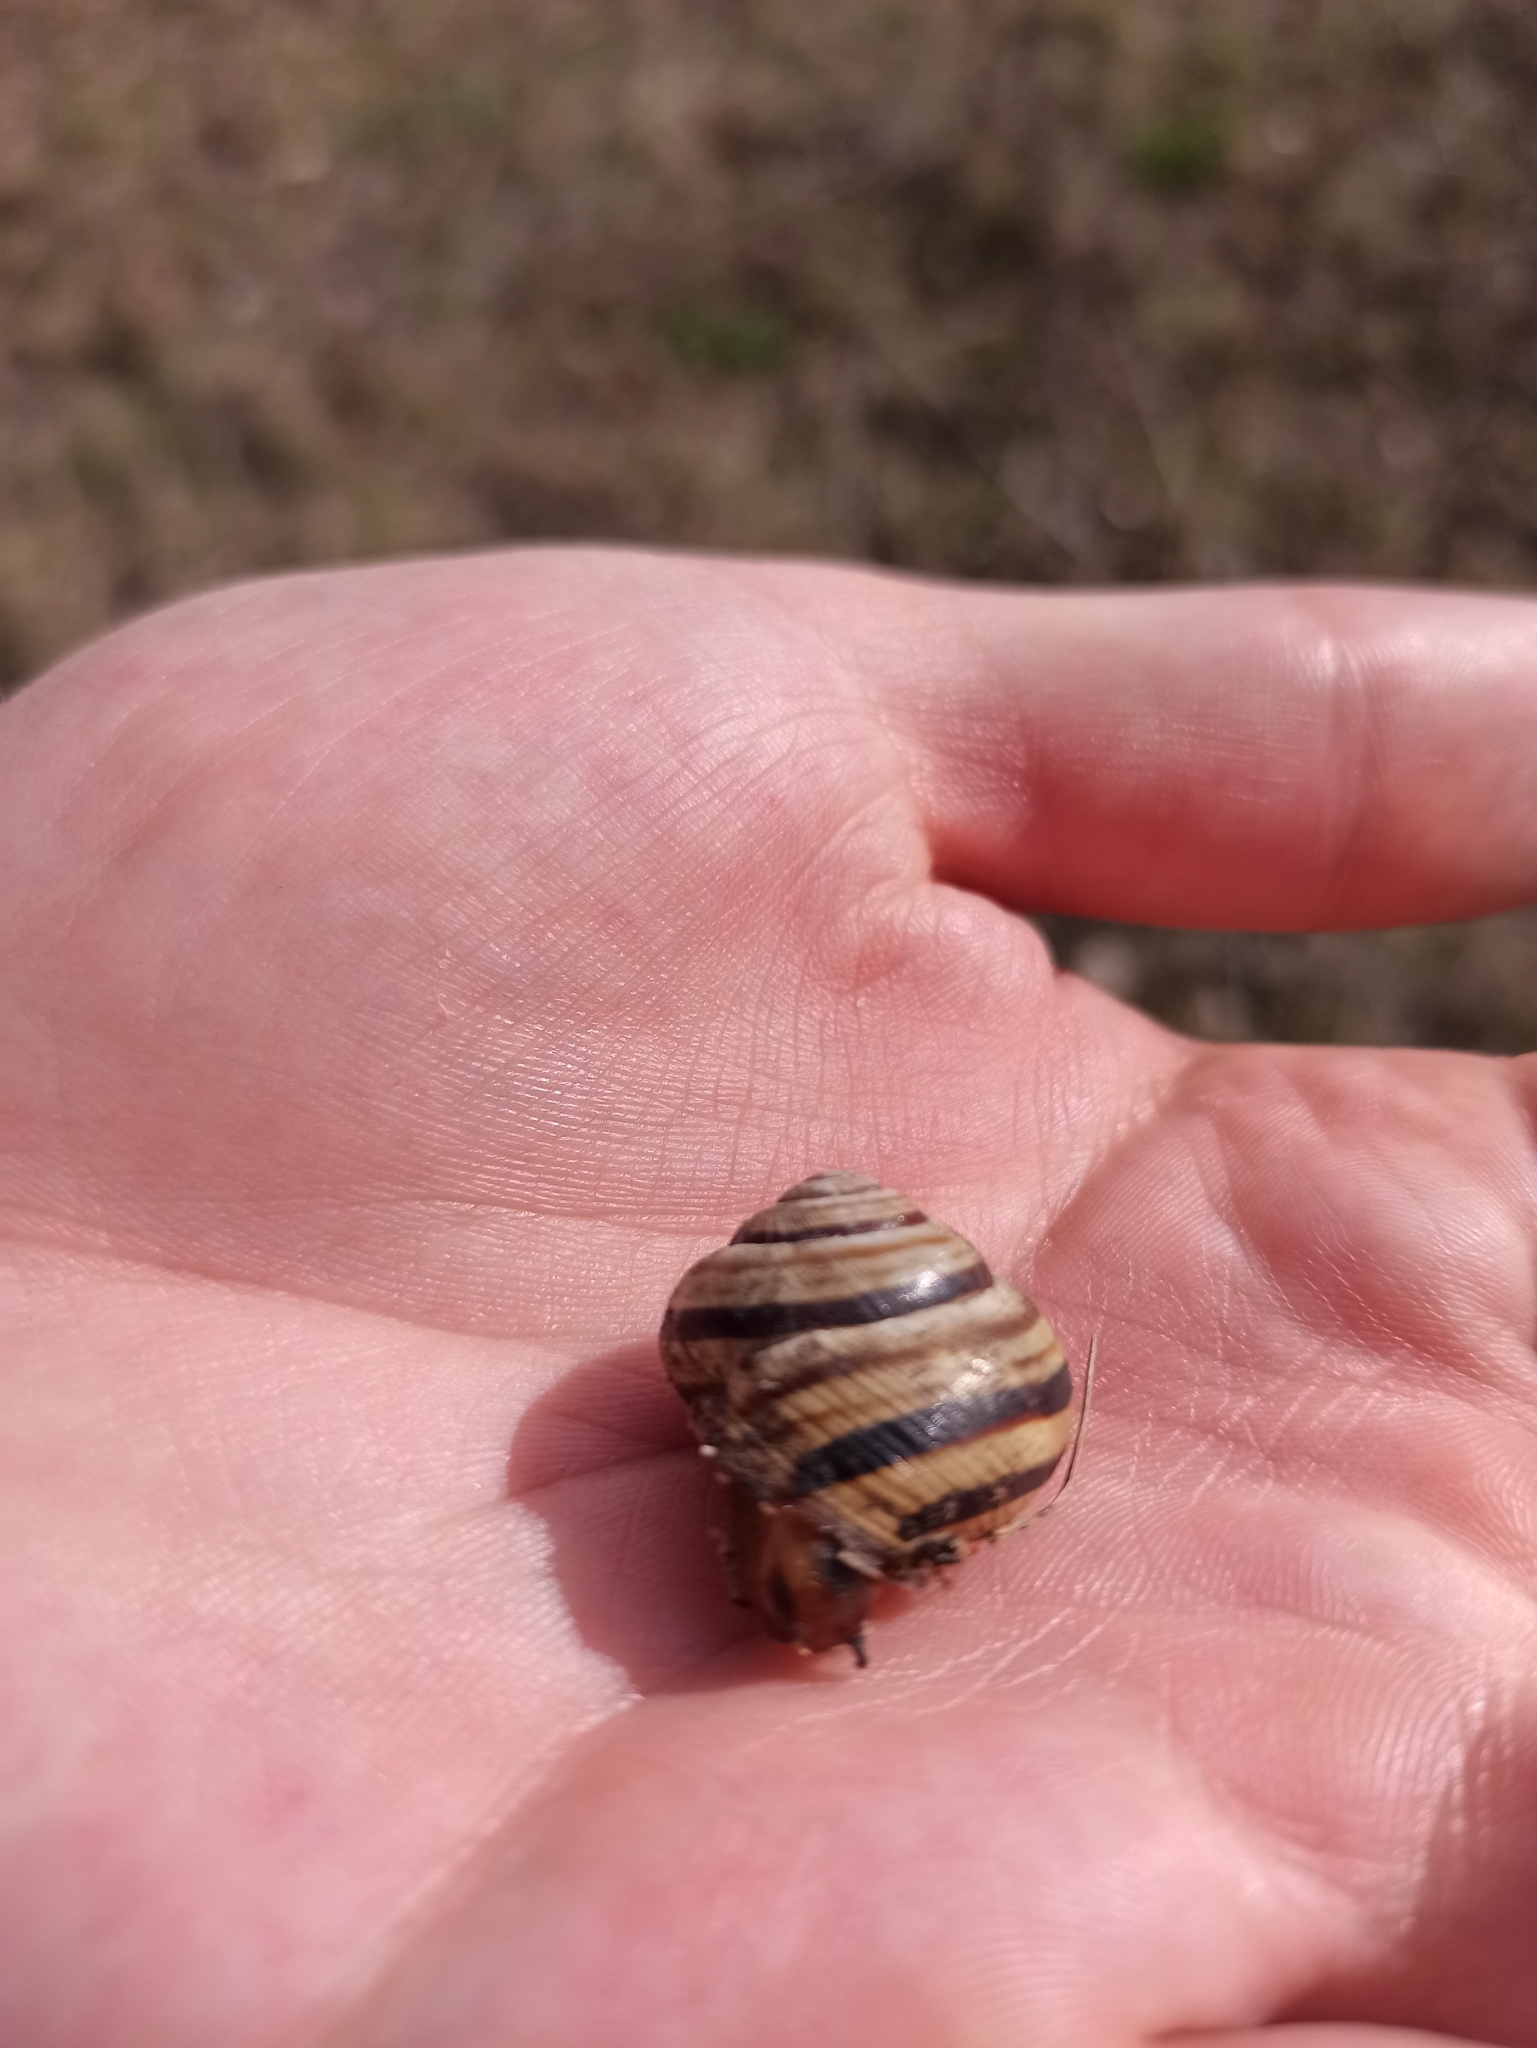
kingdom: Animalia
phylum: Mollusca
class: Gastropoda
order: Stylommatophora
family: Helicidae
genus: Caucasotachea
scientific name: Caucasotachea vindobonensis
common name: European helicid land snail
